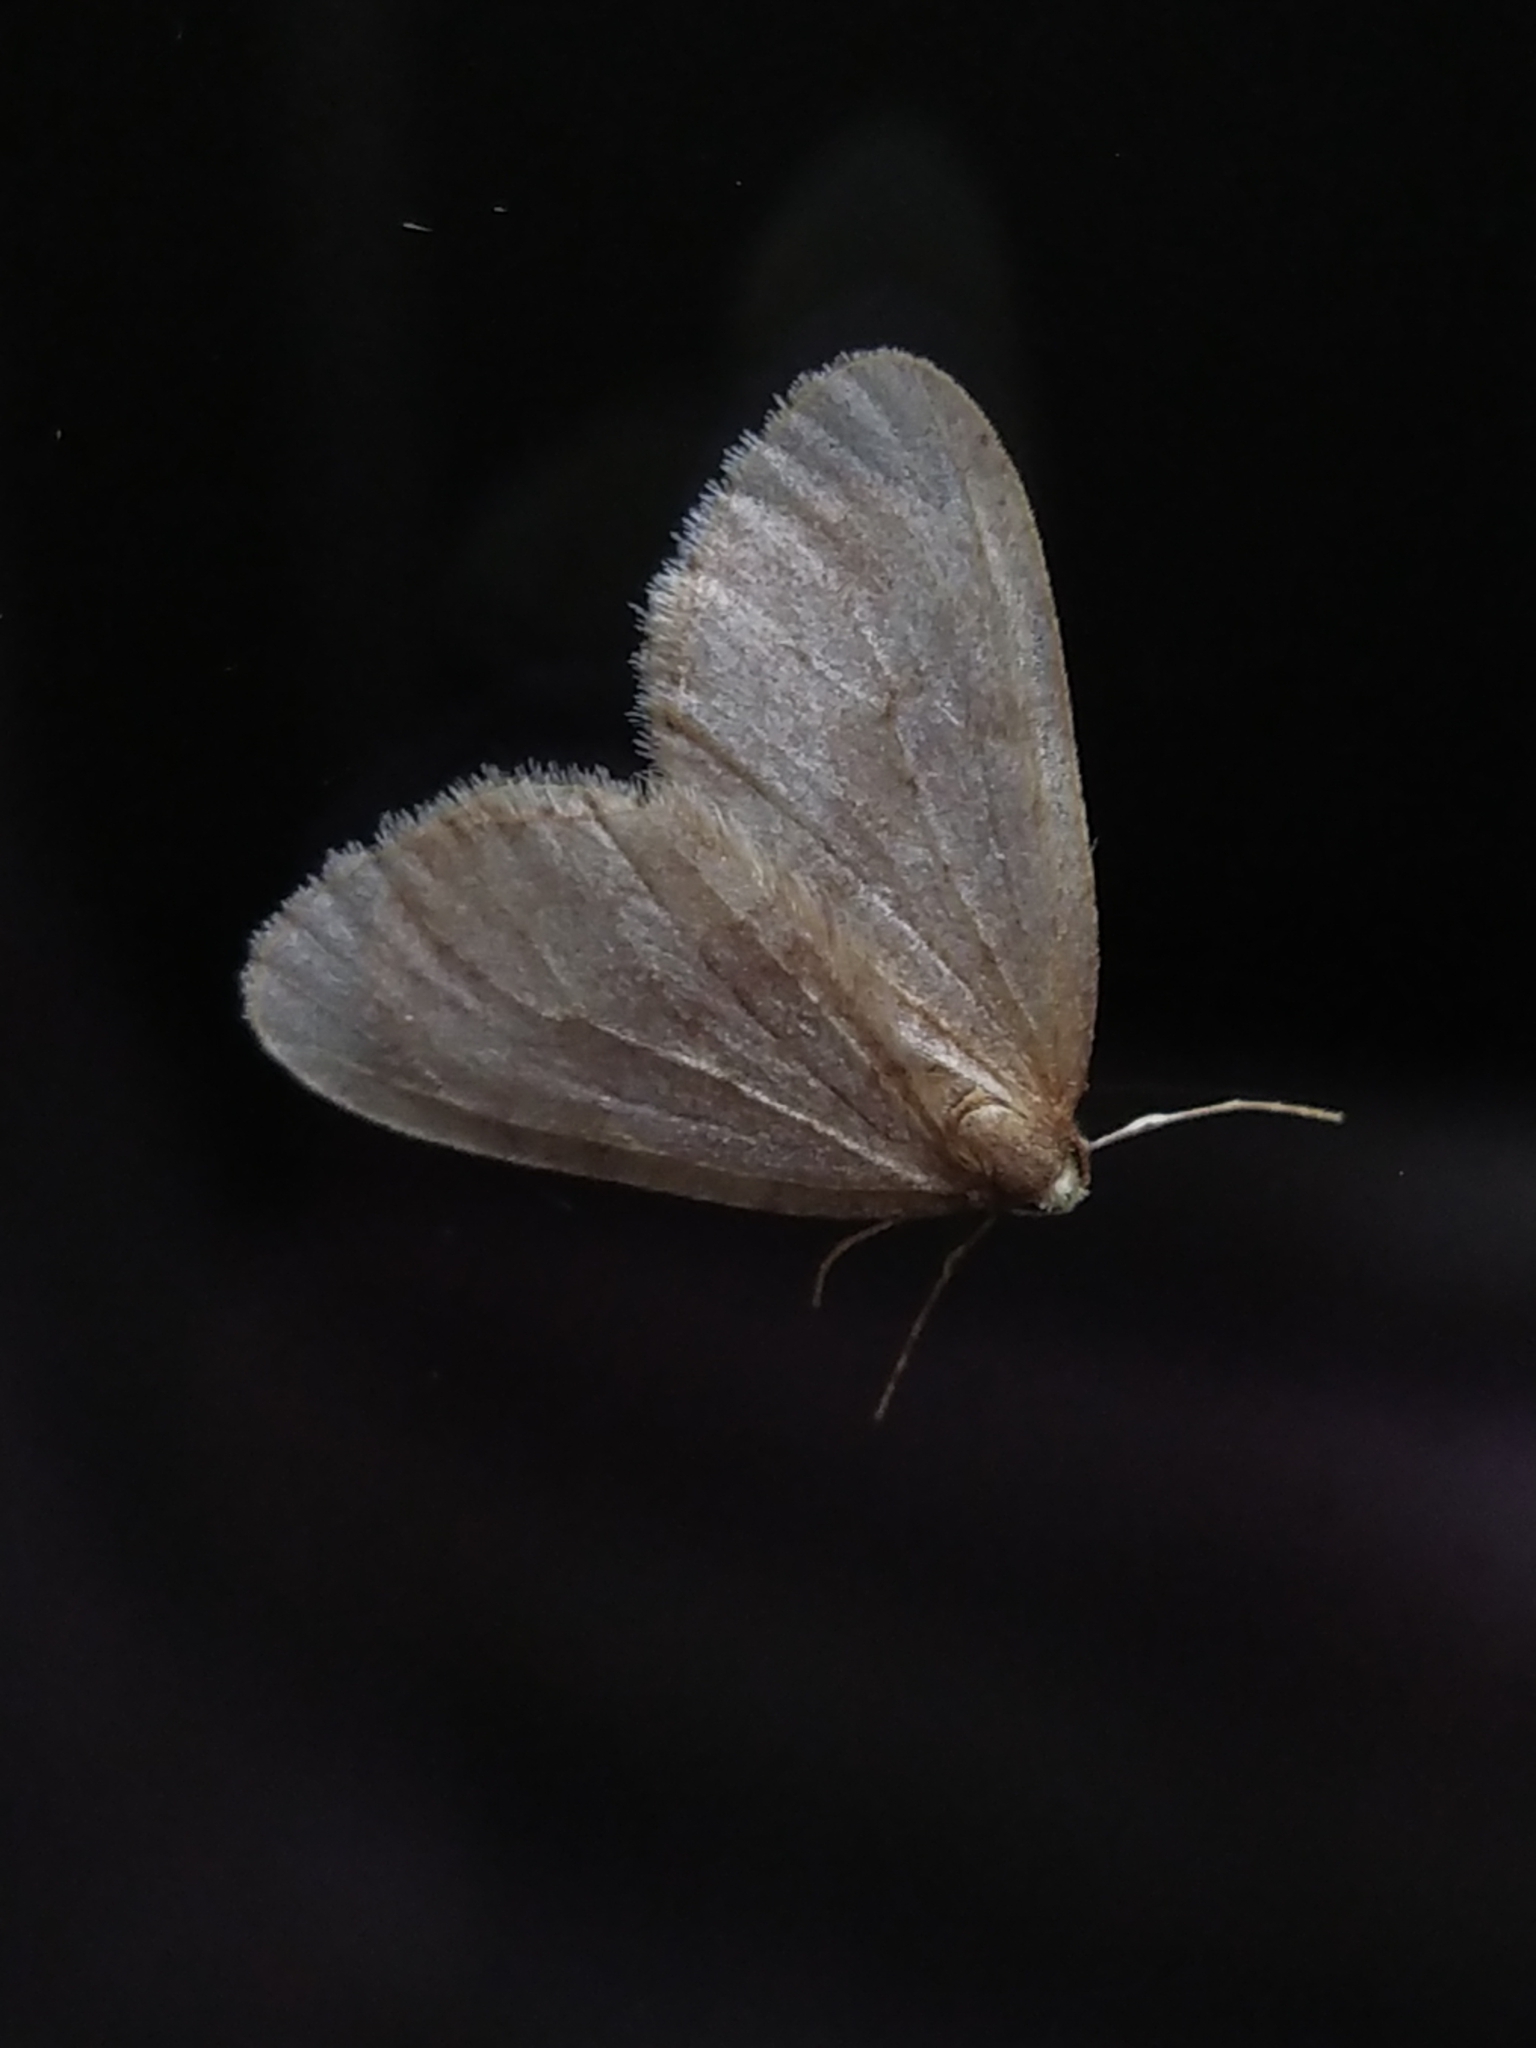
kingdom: Animalia
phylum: Arthropoda
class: Insecta
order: Lepidoptera
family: Geometridae
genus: Operophtera
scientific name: Operophtera brumata
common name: Winter moth
